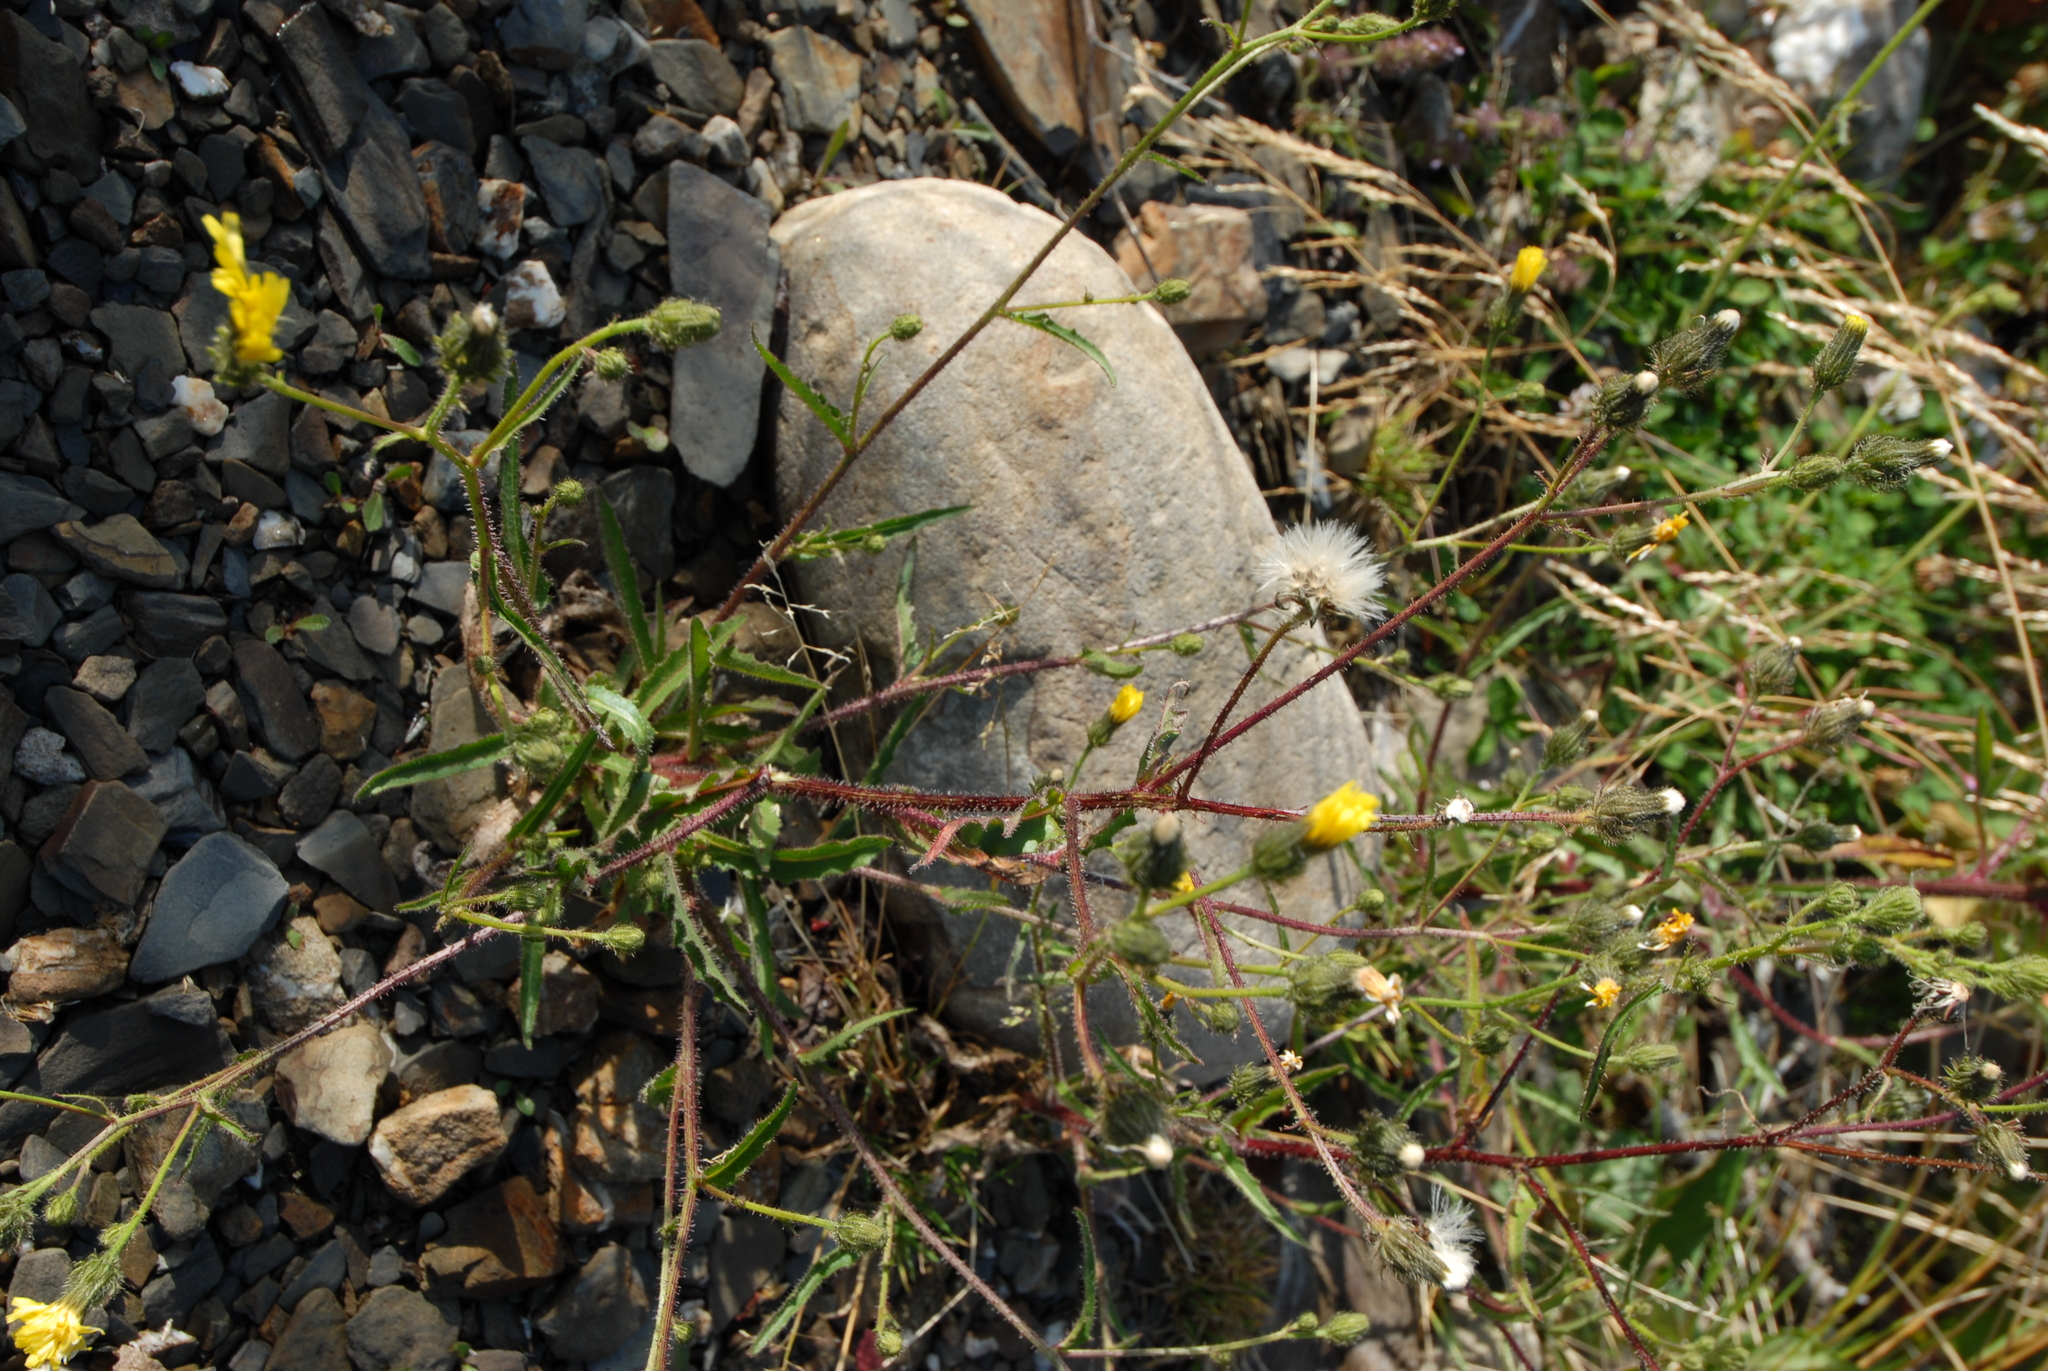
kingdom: Plantae
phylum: Tracheophyta
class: Magnoliopsida
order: Asterales
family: Asteraceae
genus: Picris
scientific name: Picris hieracioides
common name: Hawkweed oxtongue
